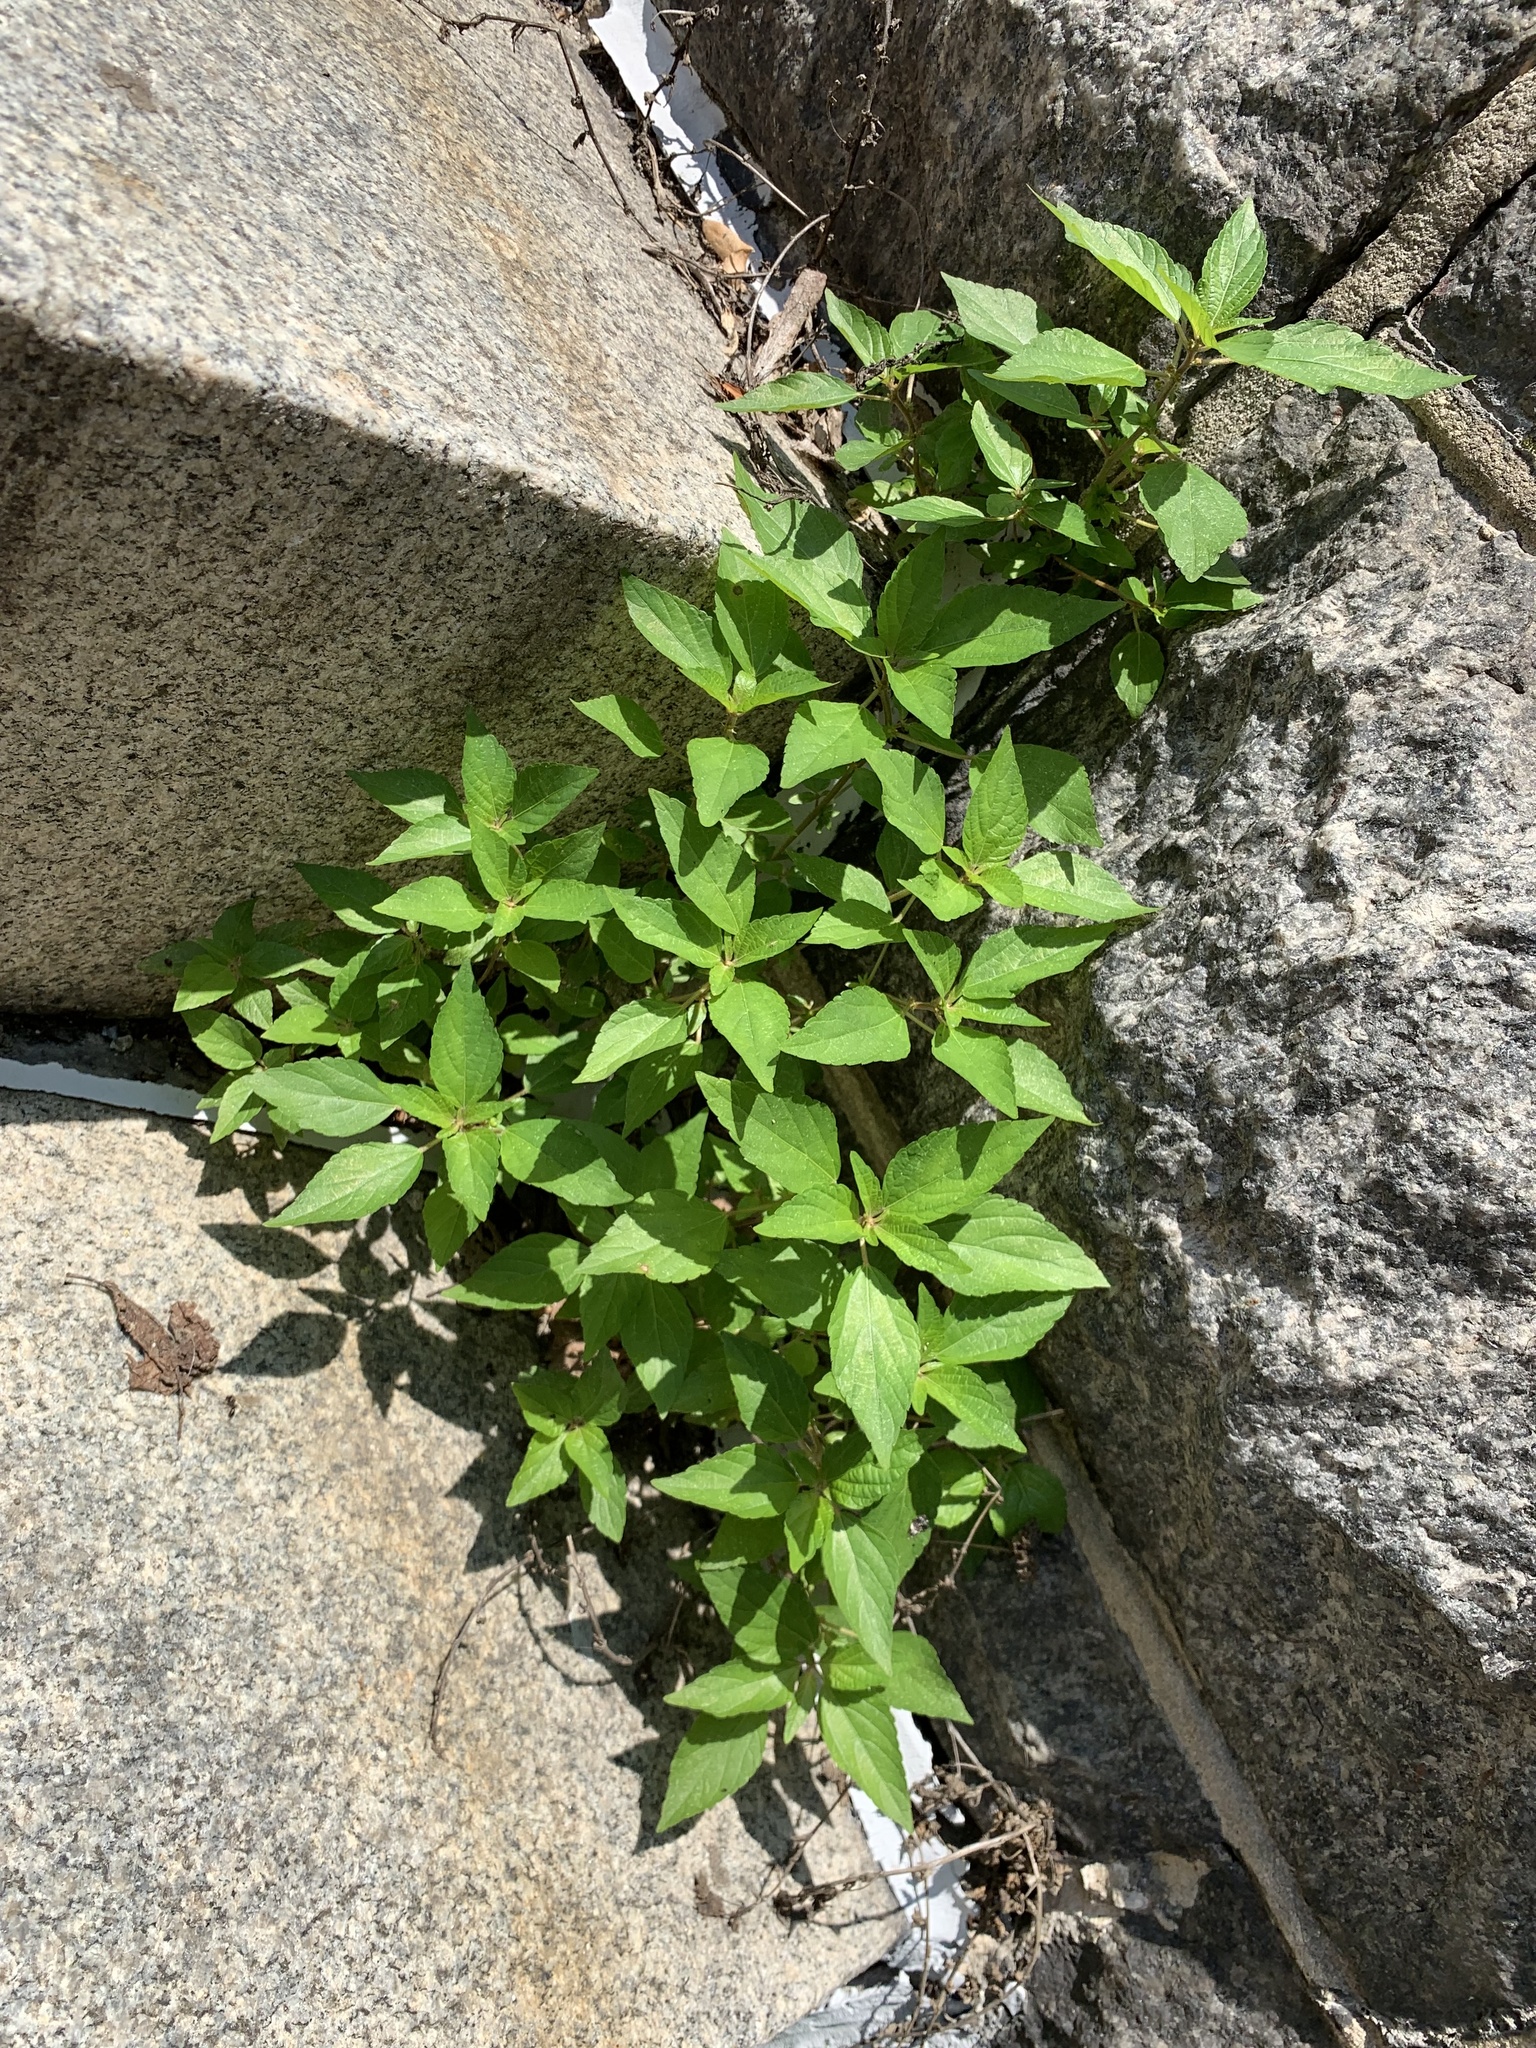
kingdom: Plantae
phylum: Tracheophyta
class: Magnoliopsida
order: Malpighiales
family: Euphorbiaceae
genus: Acalypha
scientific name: Acalypha rhomboidea
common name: Rhombic copperleaf
